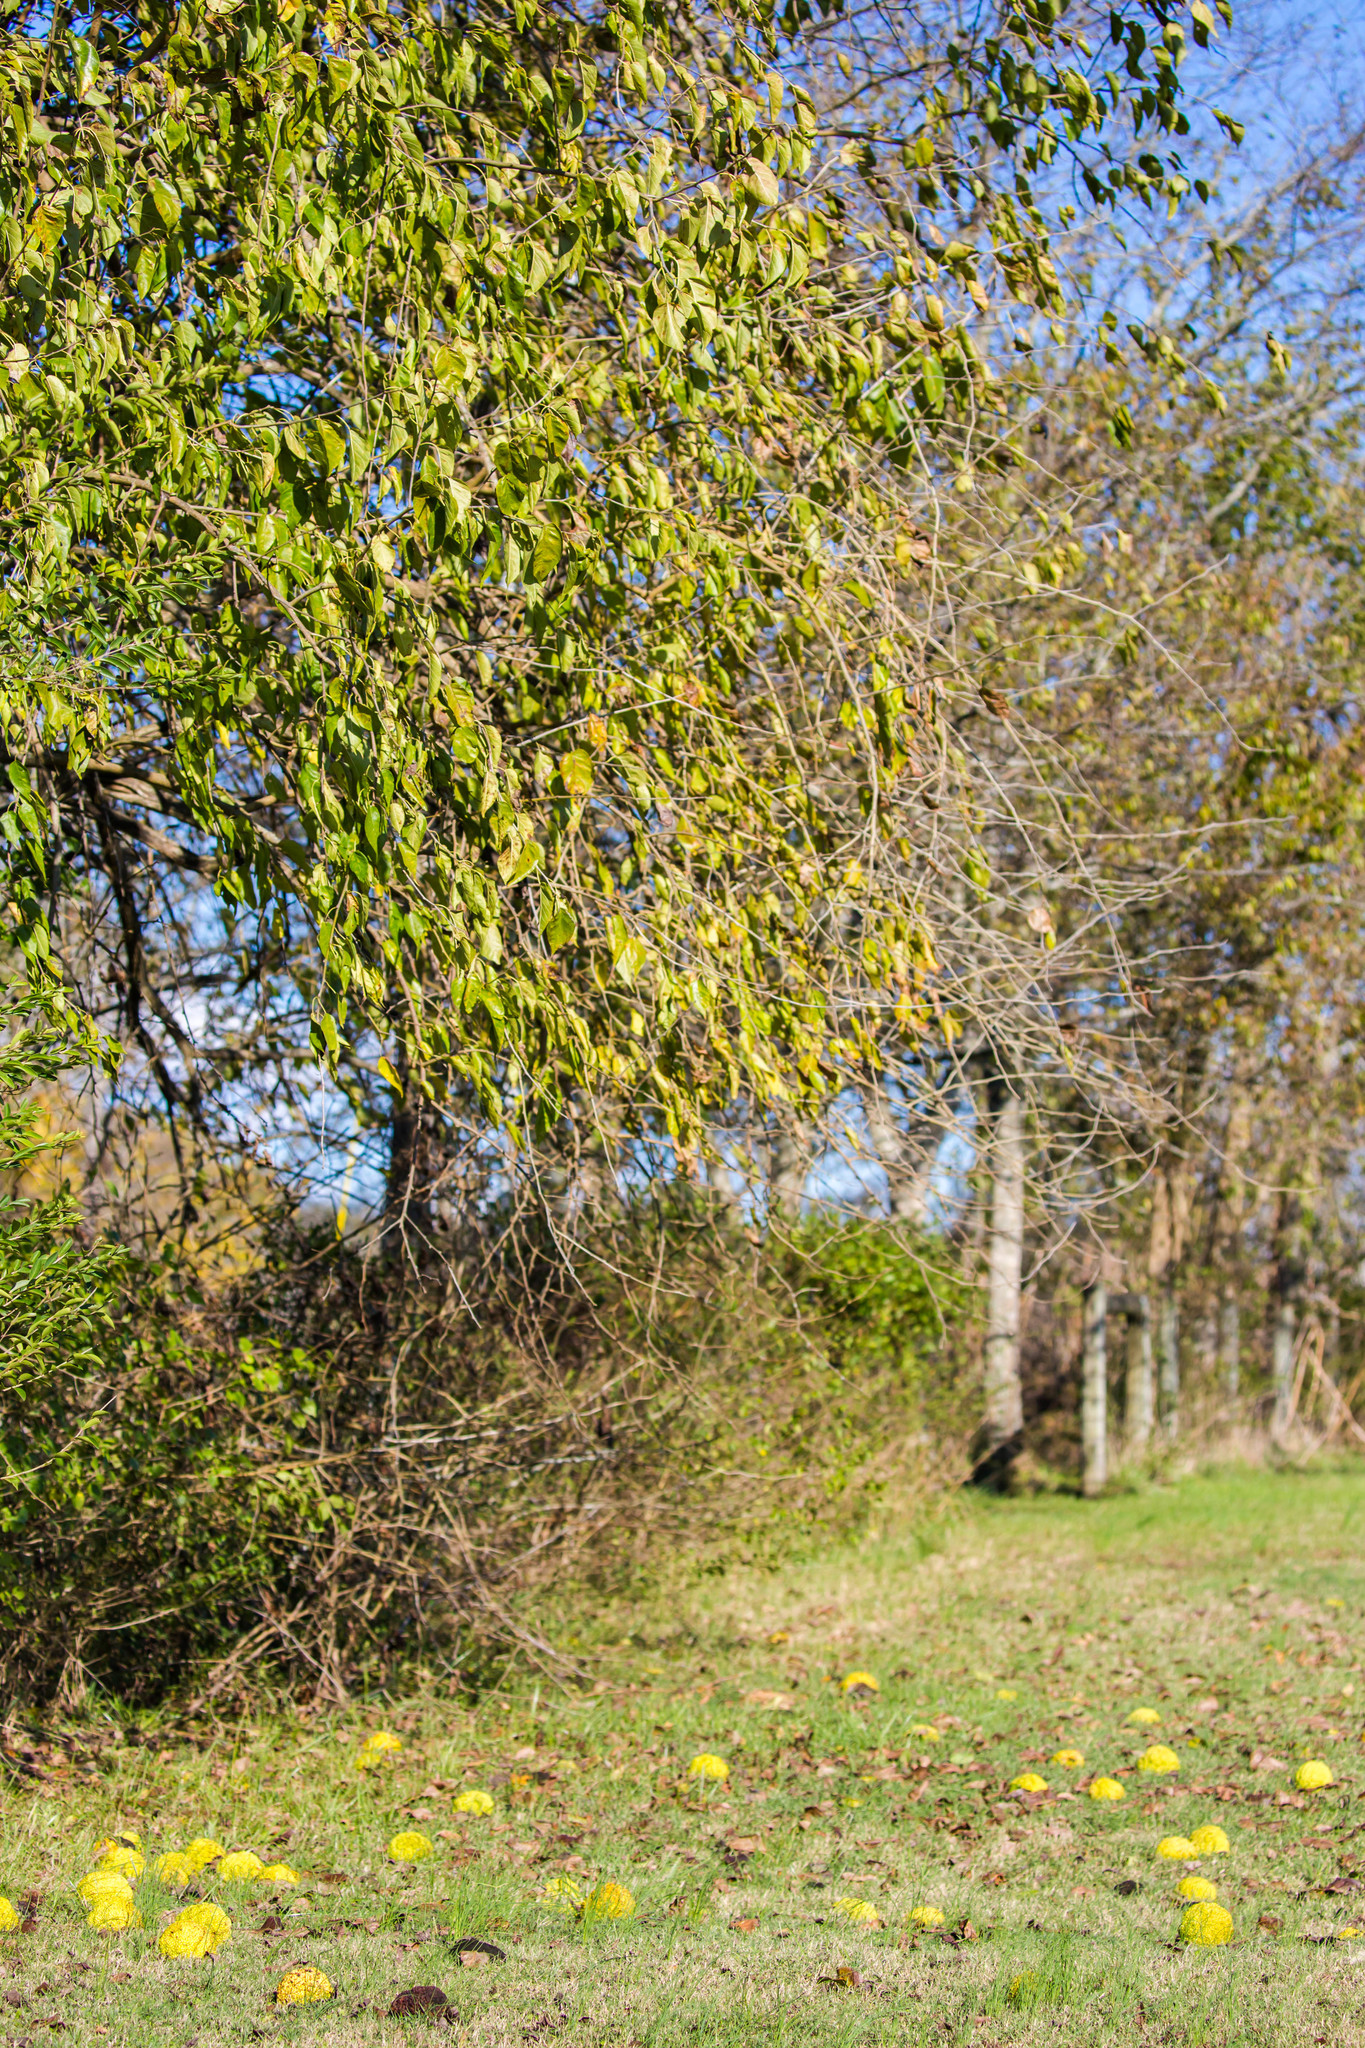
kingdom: Plantae
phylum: Tracheophyta
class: Magnoliopsida
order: Rosales
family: Moraceae
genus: Maclura
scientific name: Maclura pomifera
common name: Osage-orange
